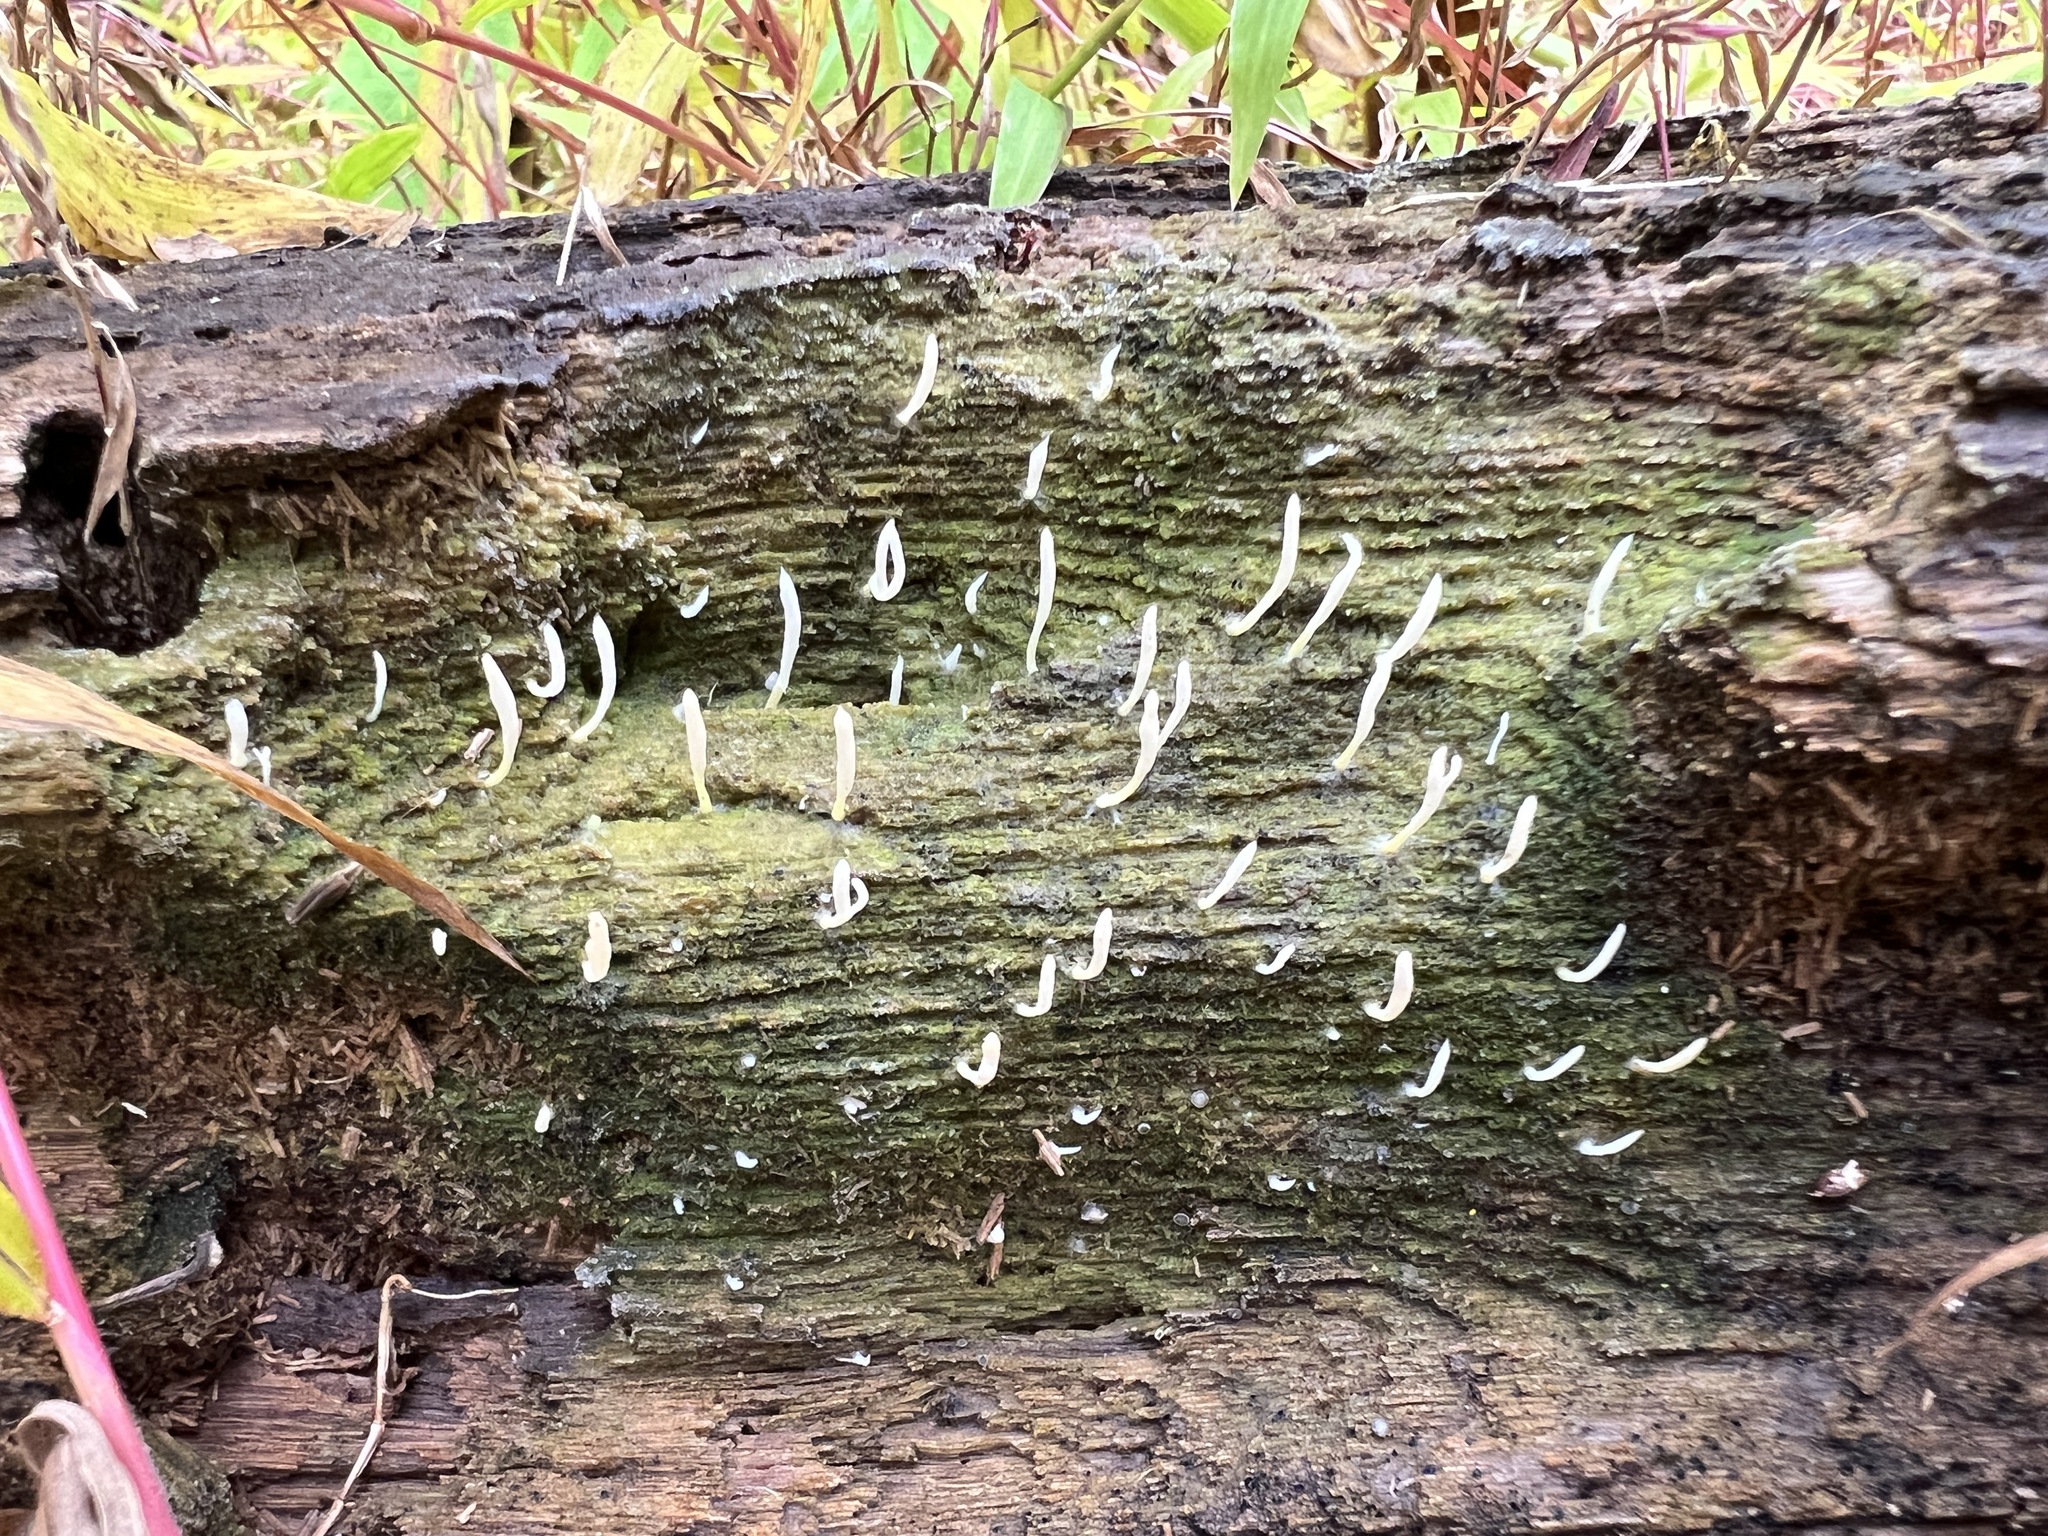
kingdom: Fungi
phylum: Basidiomycota
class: Agaricomycetes
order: Cantharellales
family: Hydnaceae
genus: Multiclavula
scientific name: Multiclavula mucida
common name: White green-algae coral
